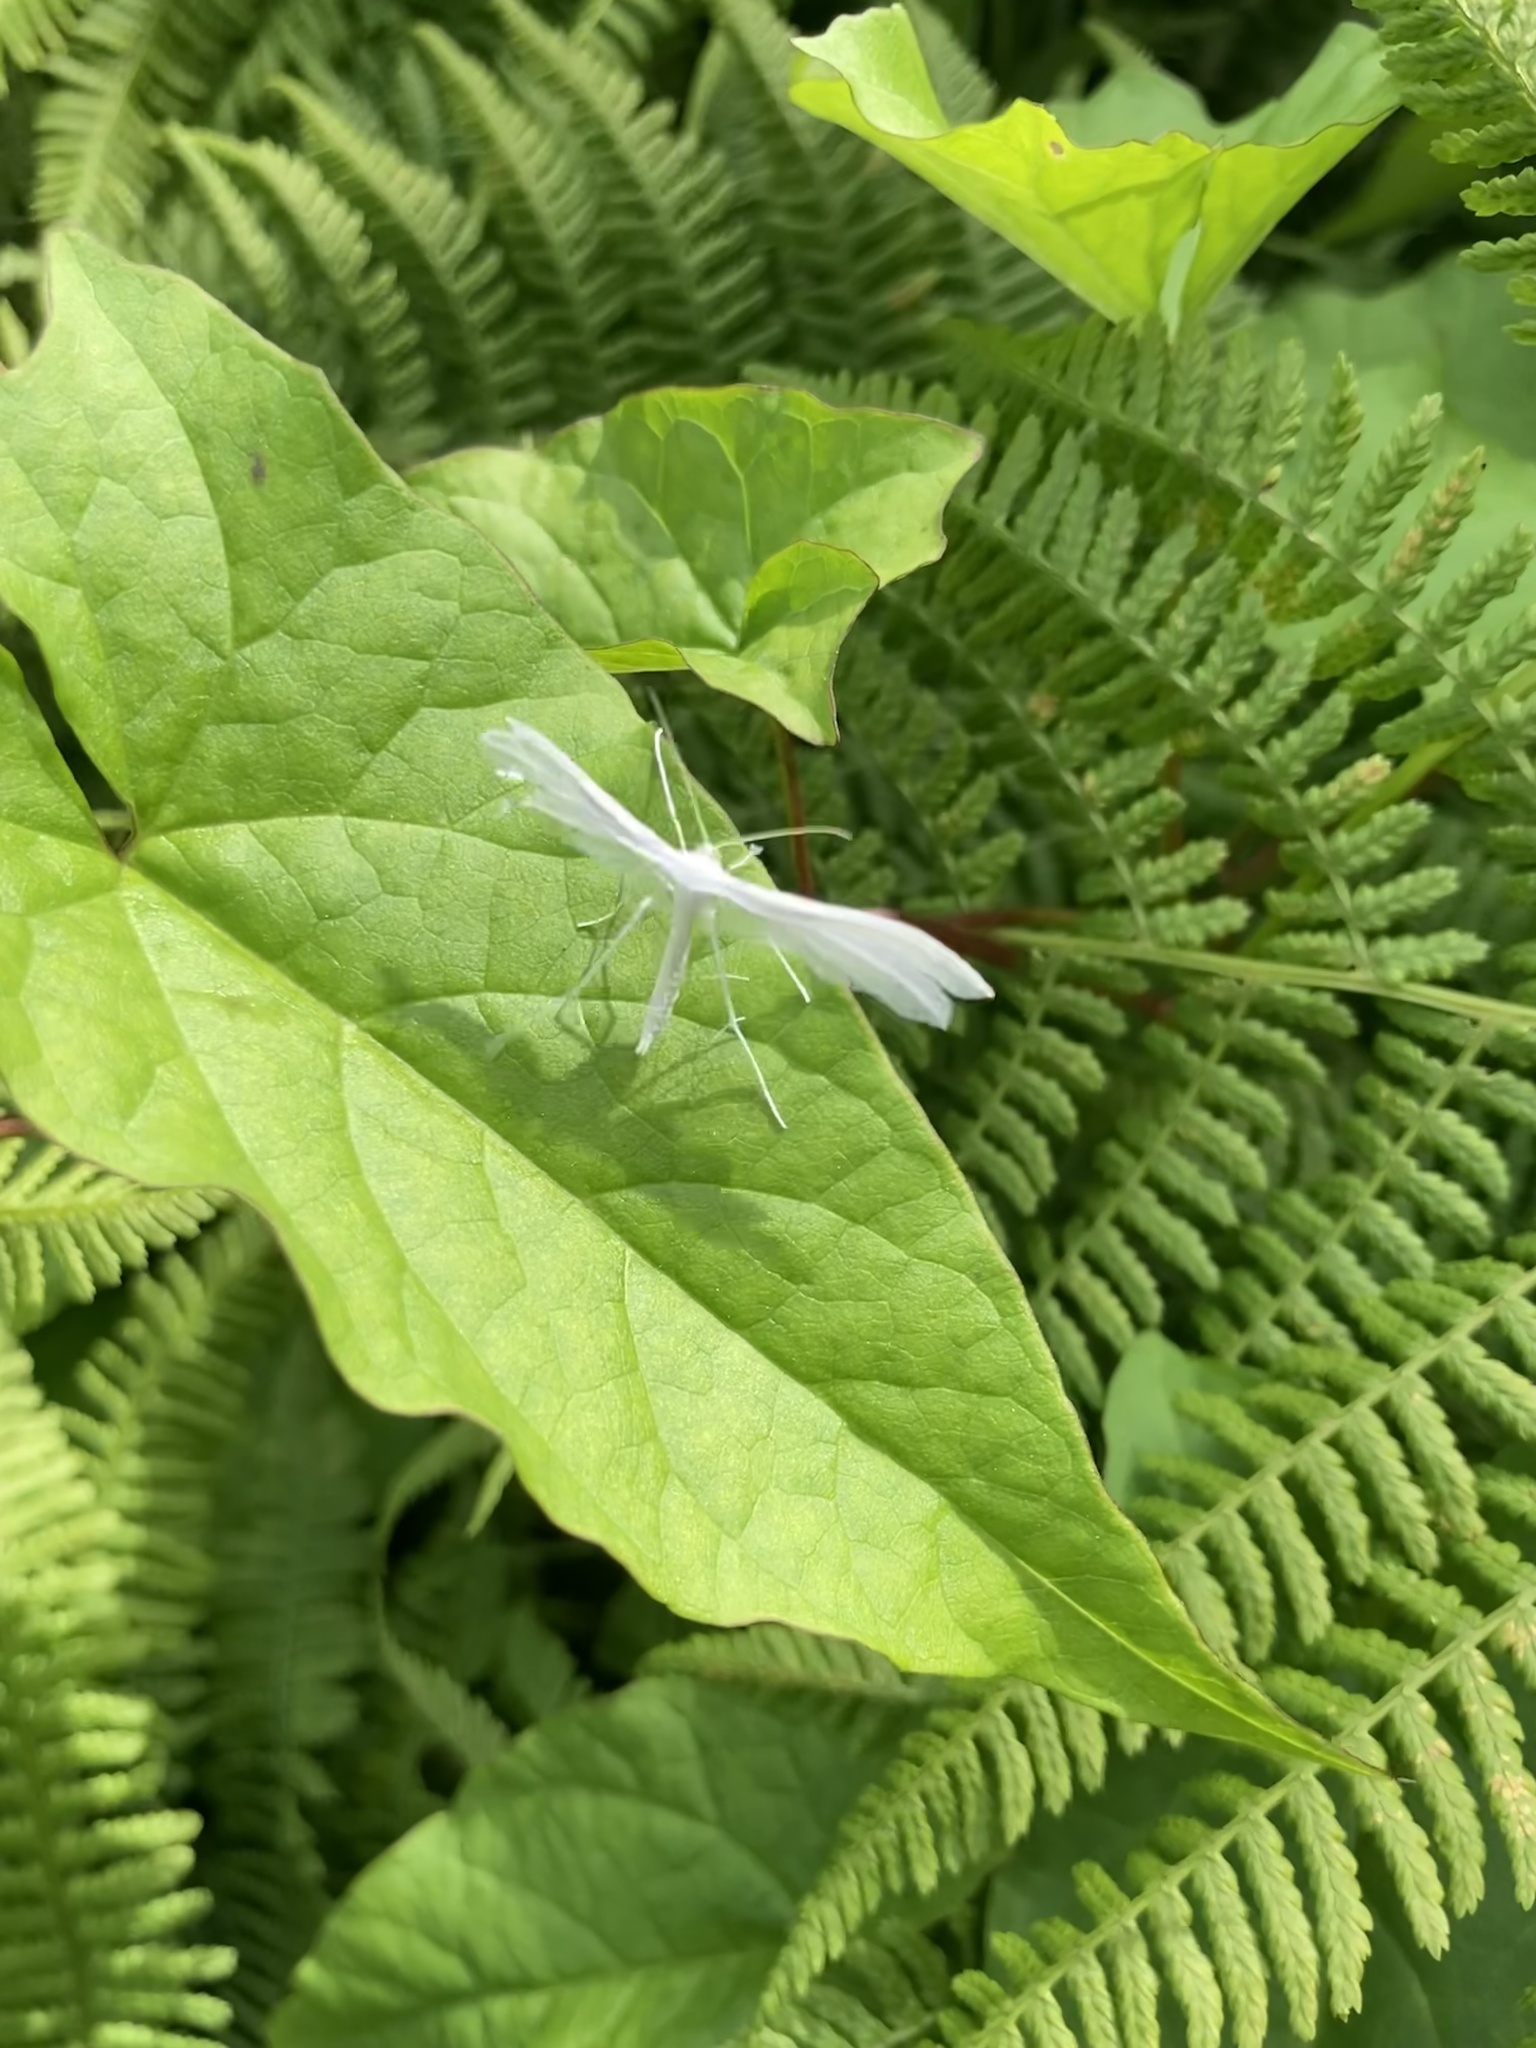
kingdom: Animalia
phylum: Arthropoda
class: Insecta
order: Lepidoptera
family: Pterophoridae
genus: Pterophorus
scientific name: Pterophorus pentadactyla
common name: White plume moth
